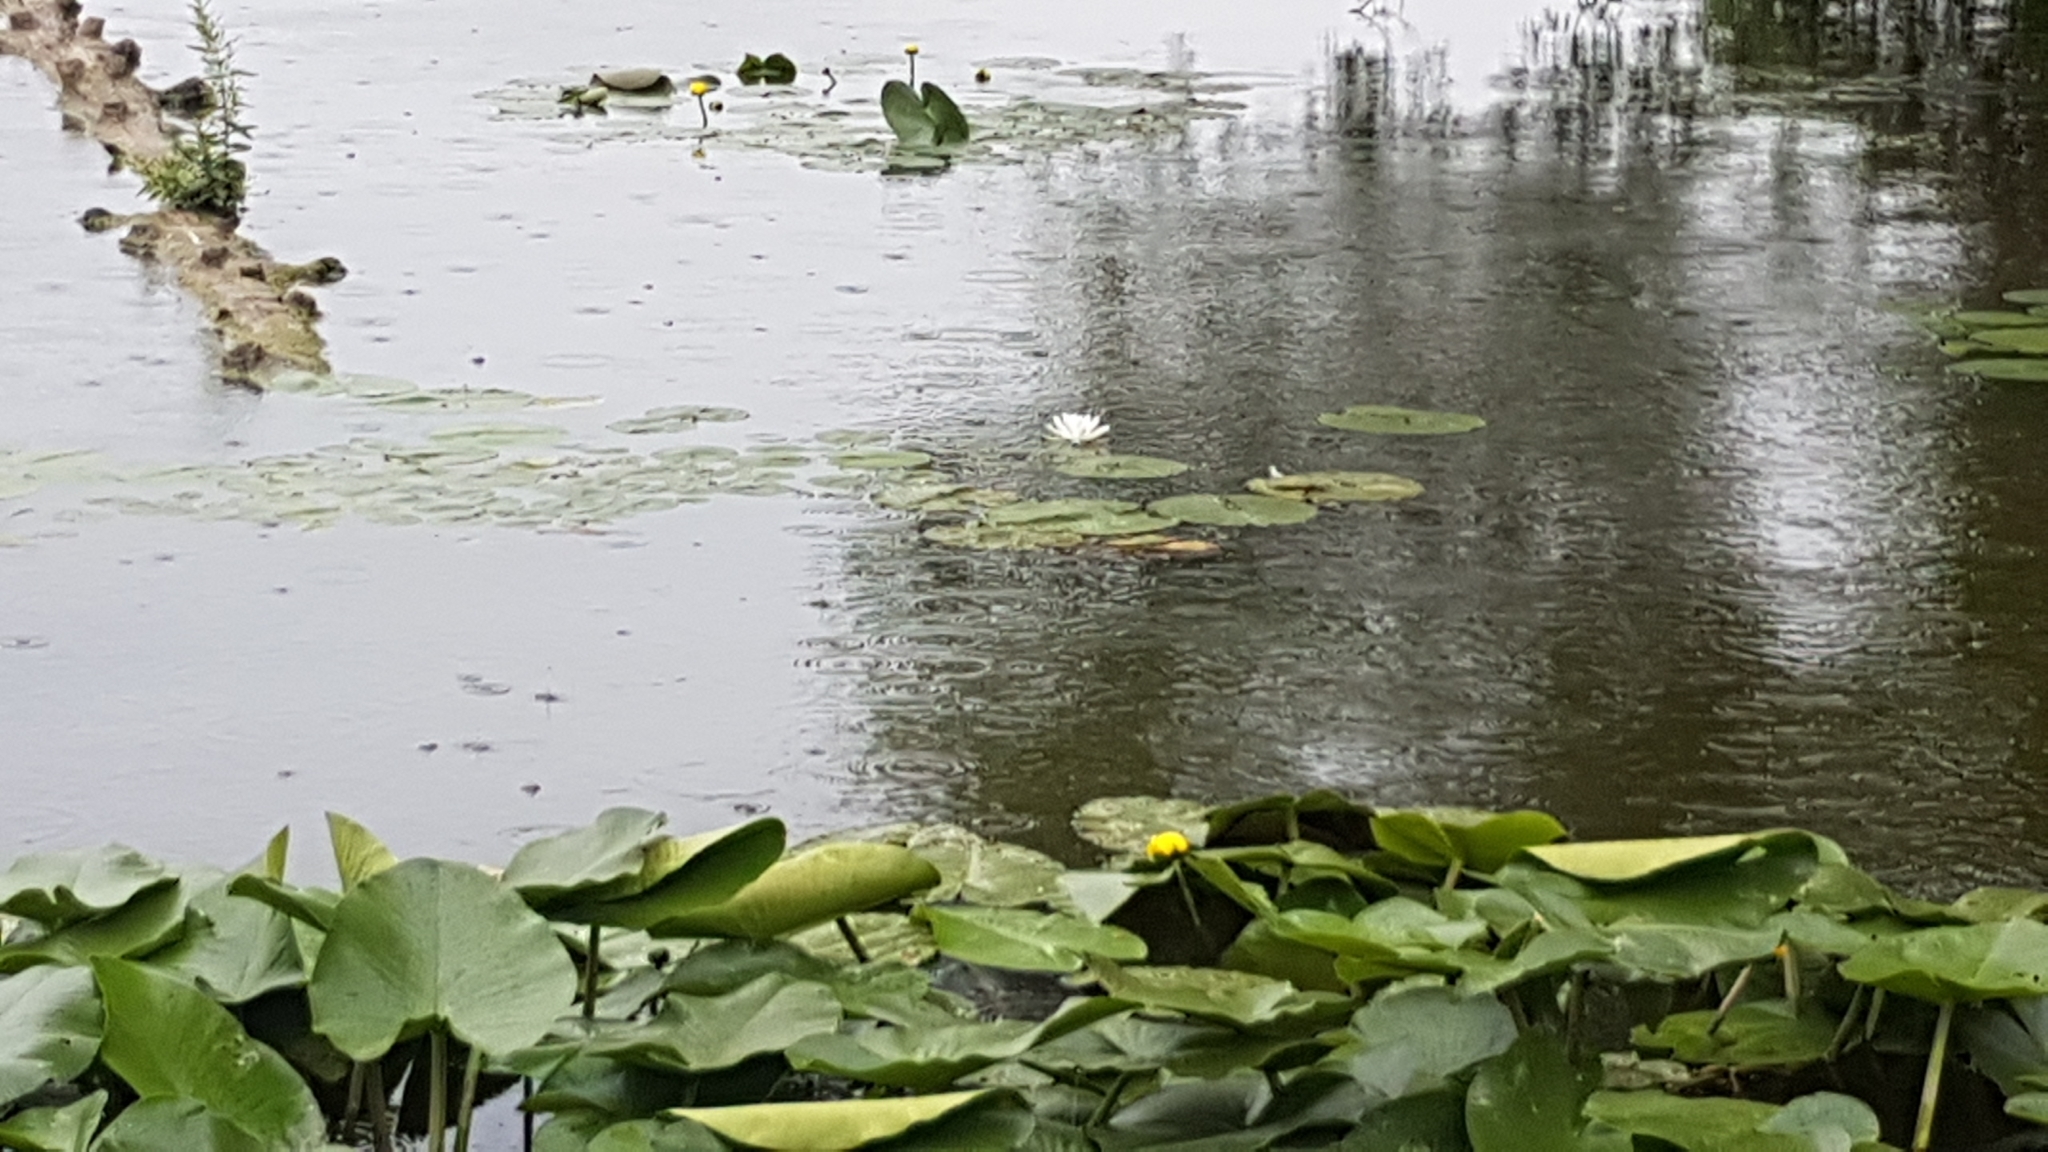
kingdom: Plantae
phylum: Tracheophyta
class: Magnoliopsida
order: Nymphaeales
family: Nymphaeaceae
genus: Nymphaea
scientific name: Nymphaea odorata
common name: Fragrant water-lily
